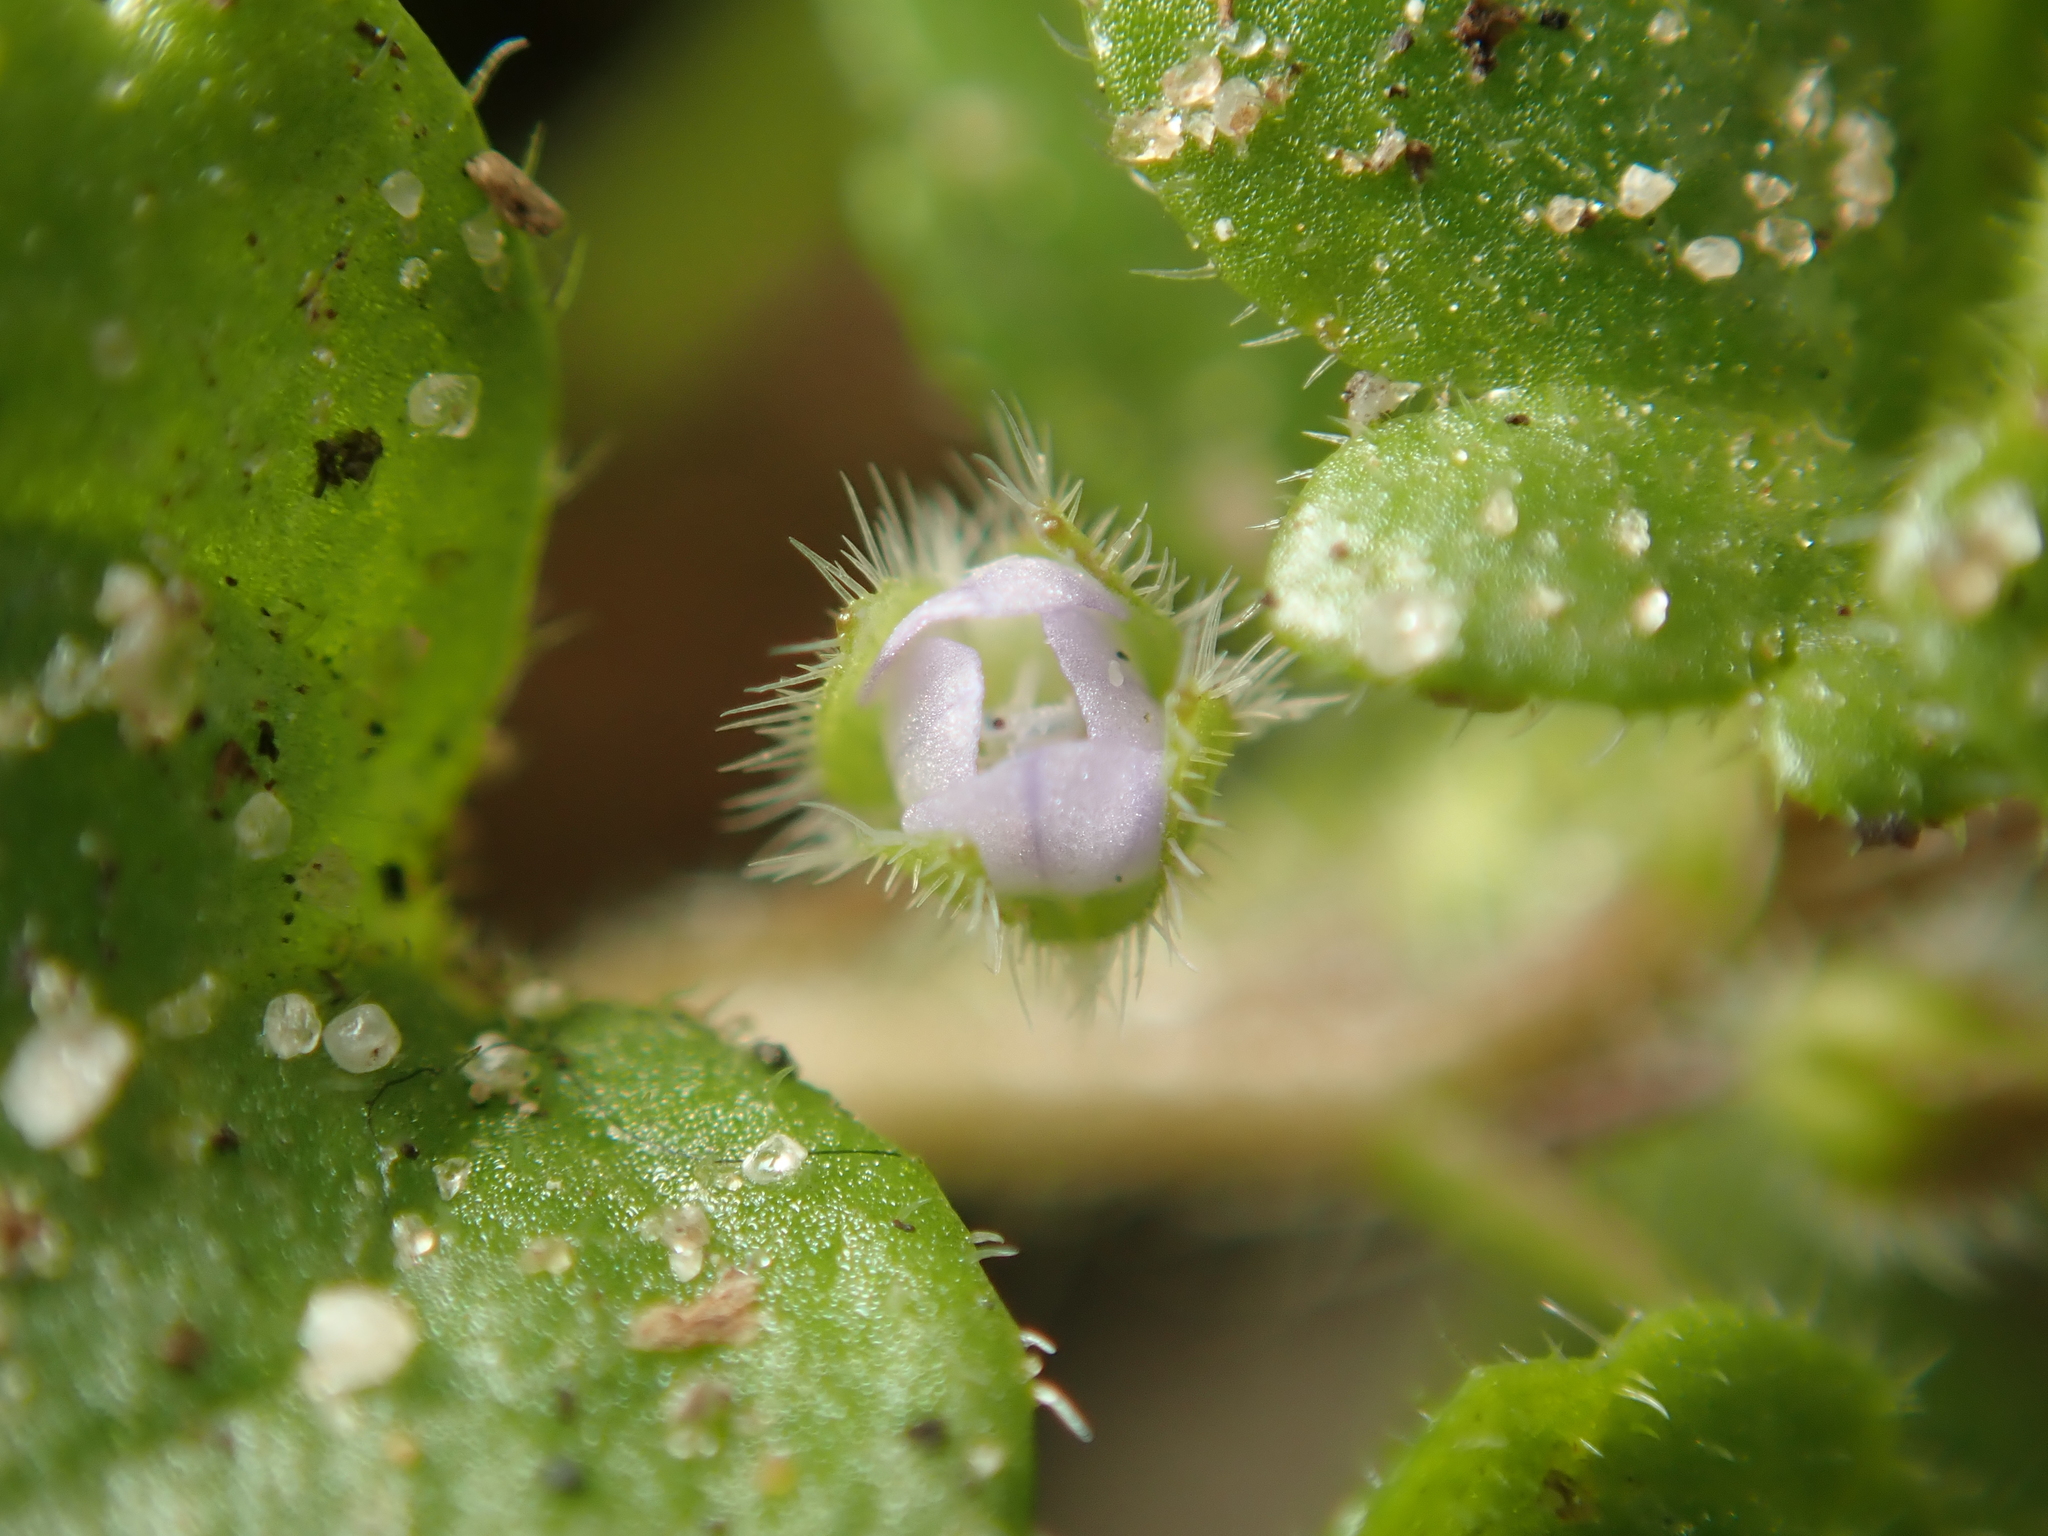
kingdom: Plantae
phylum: Tracheophyta
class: Magnoliopsida
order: Lamiales
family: Plantaginaceae
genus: Veronica
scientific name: Veronica sublobata
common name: False ivy-leaved speedwell
